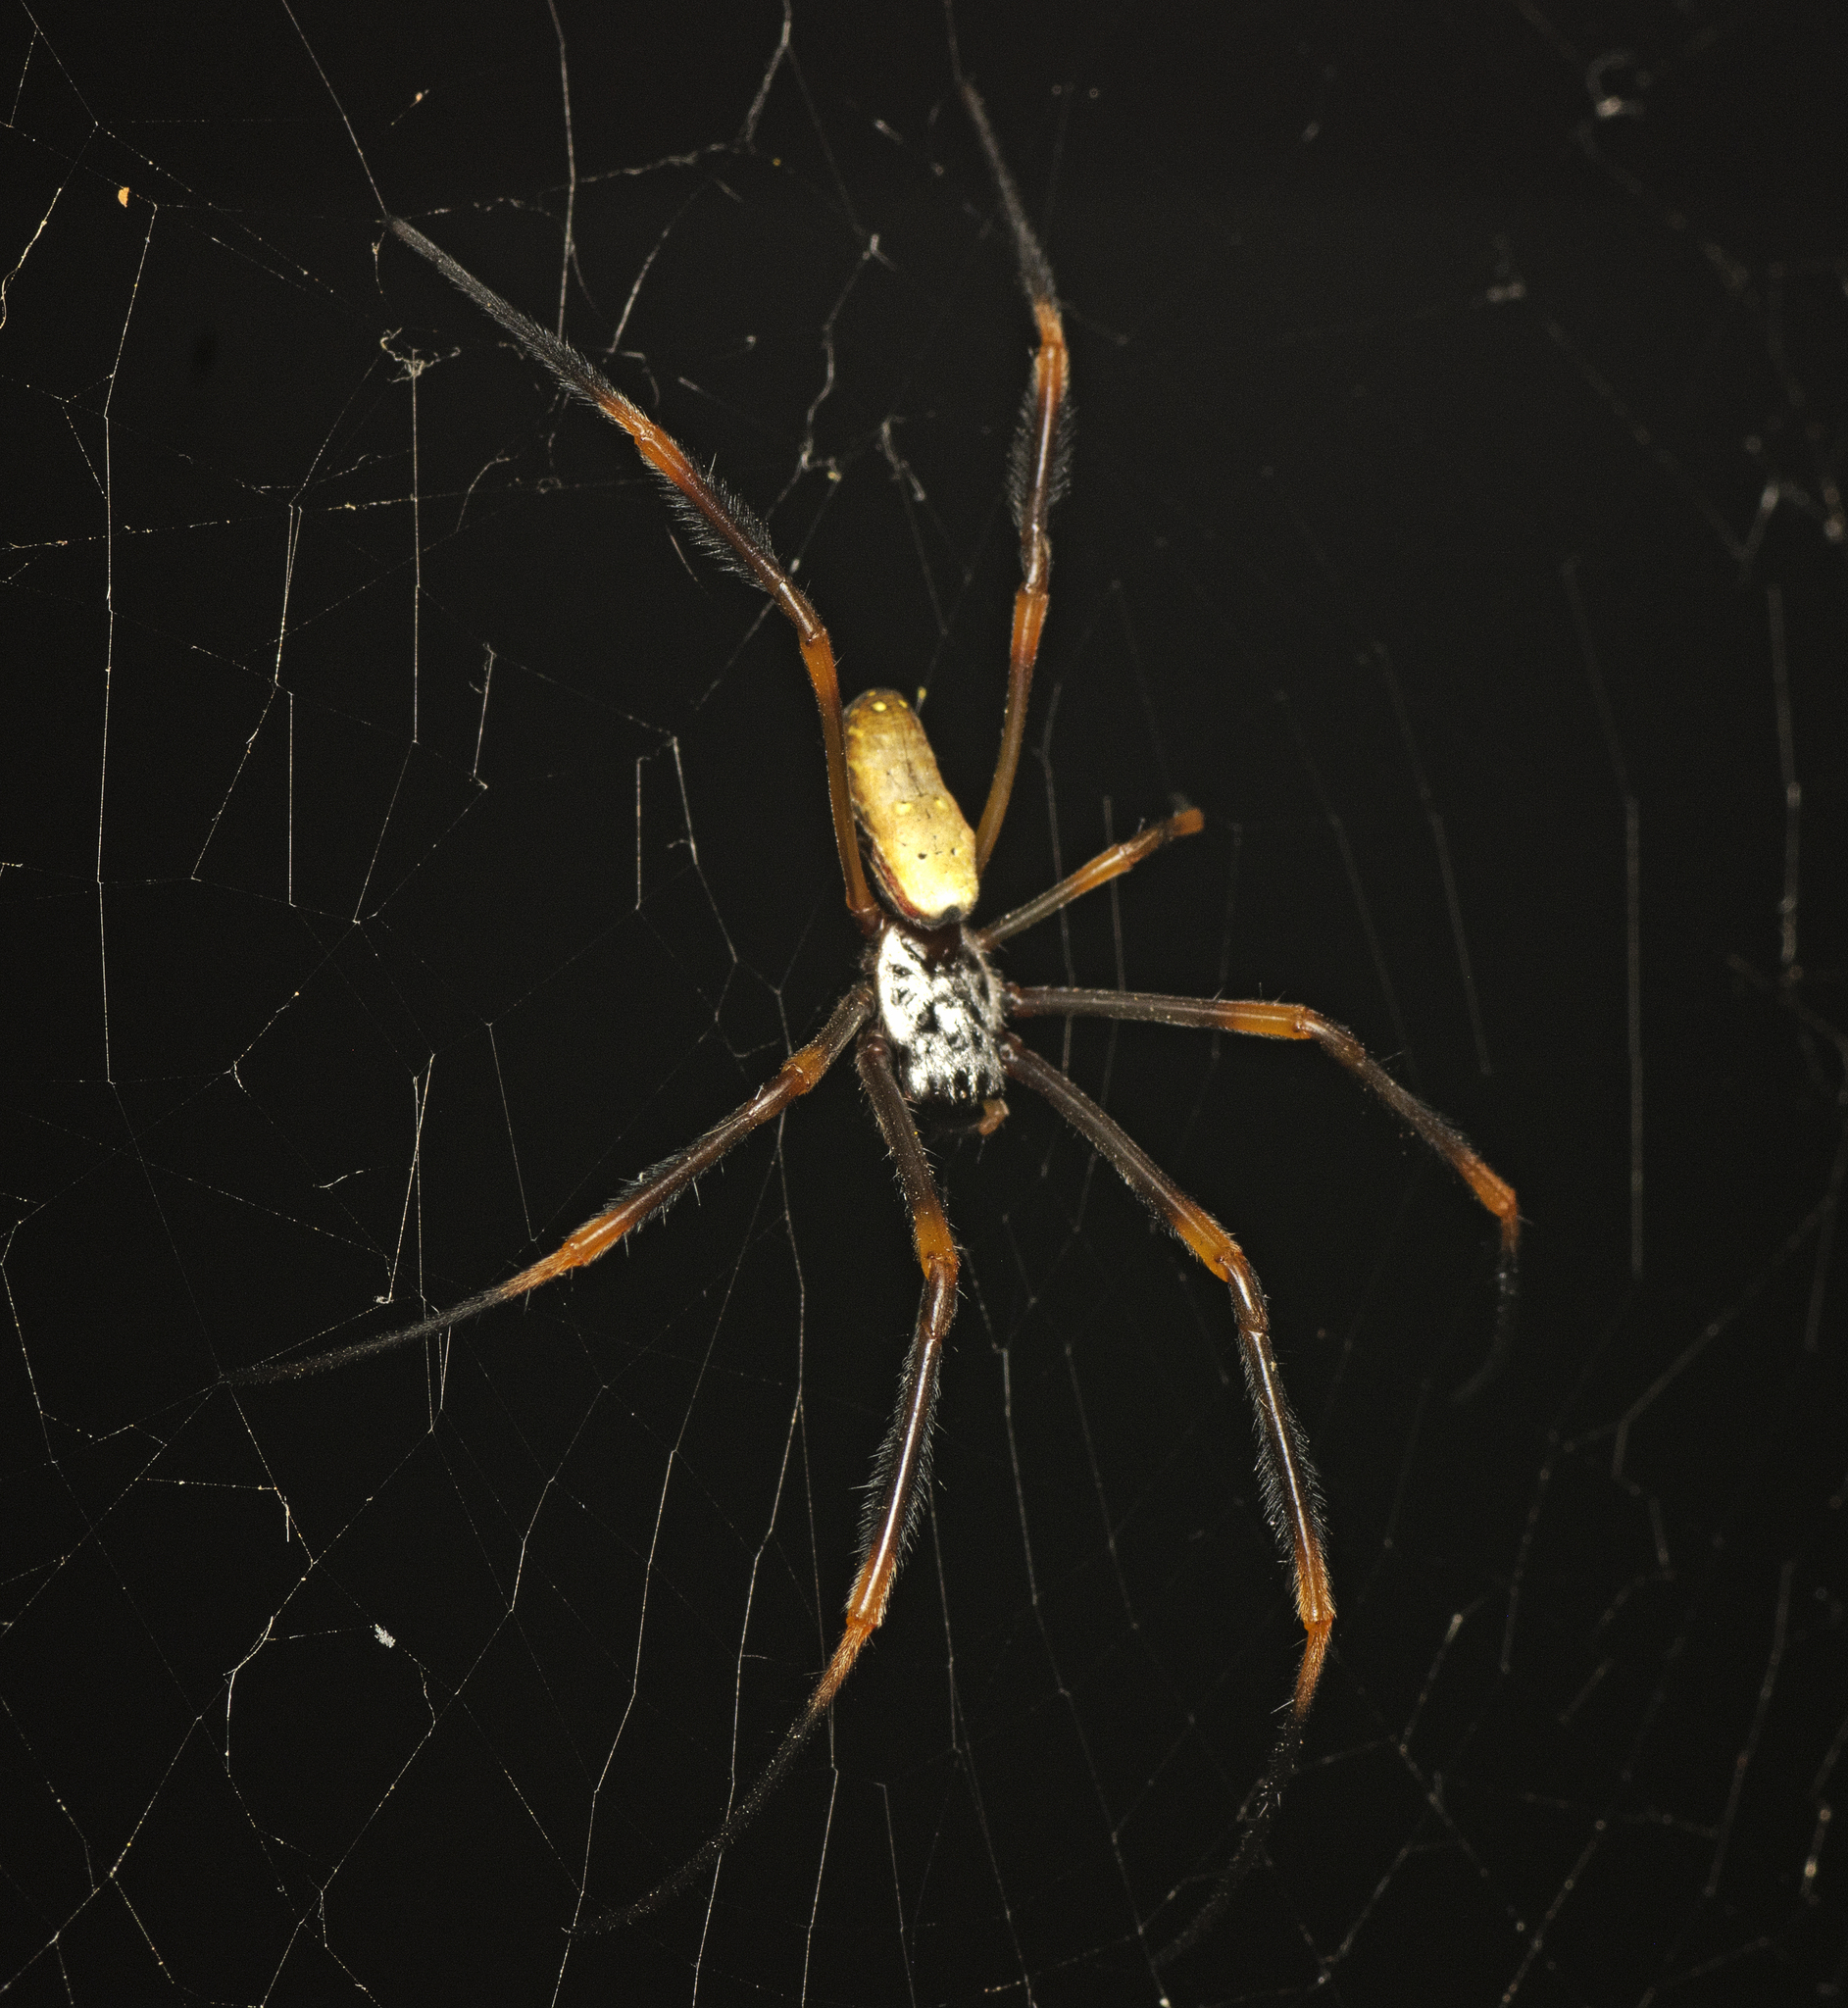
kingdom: Animalia
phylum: Arthropoda
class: Arachnida
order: Araneae
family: Araneidae
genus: Trichonephila
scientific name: Trichonephila plumipes
